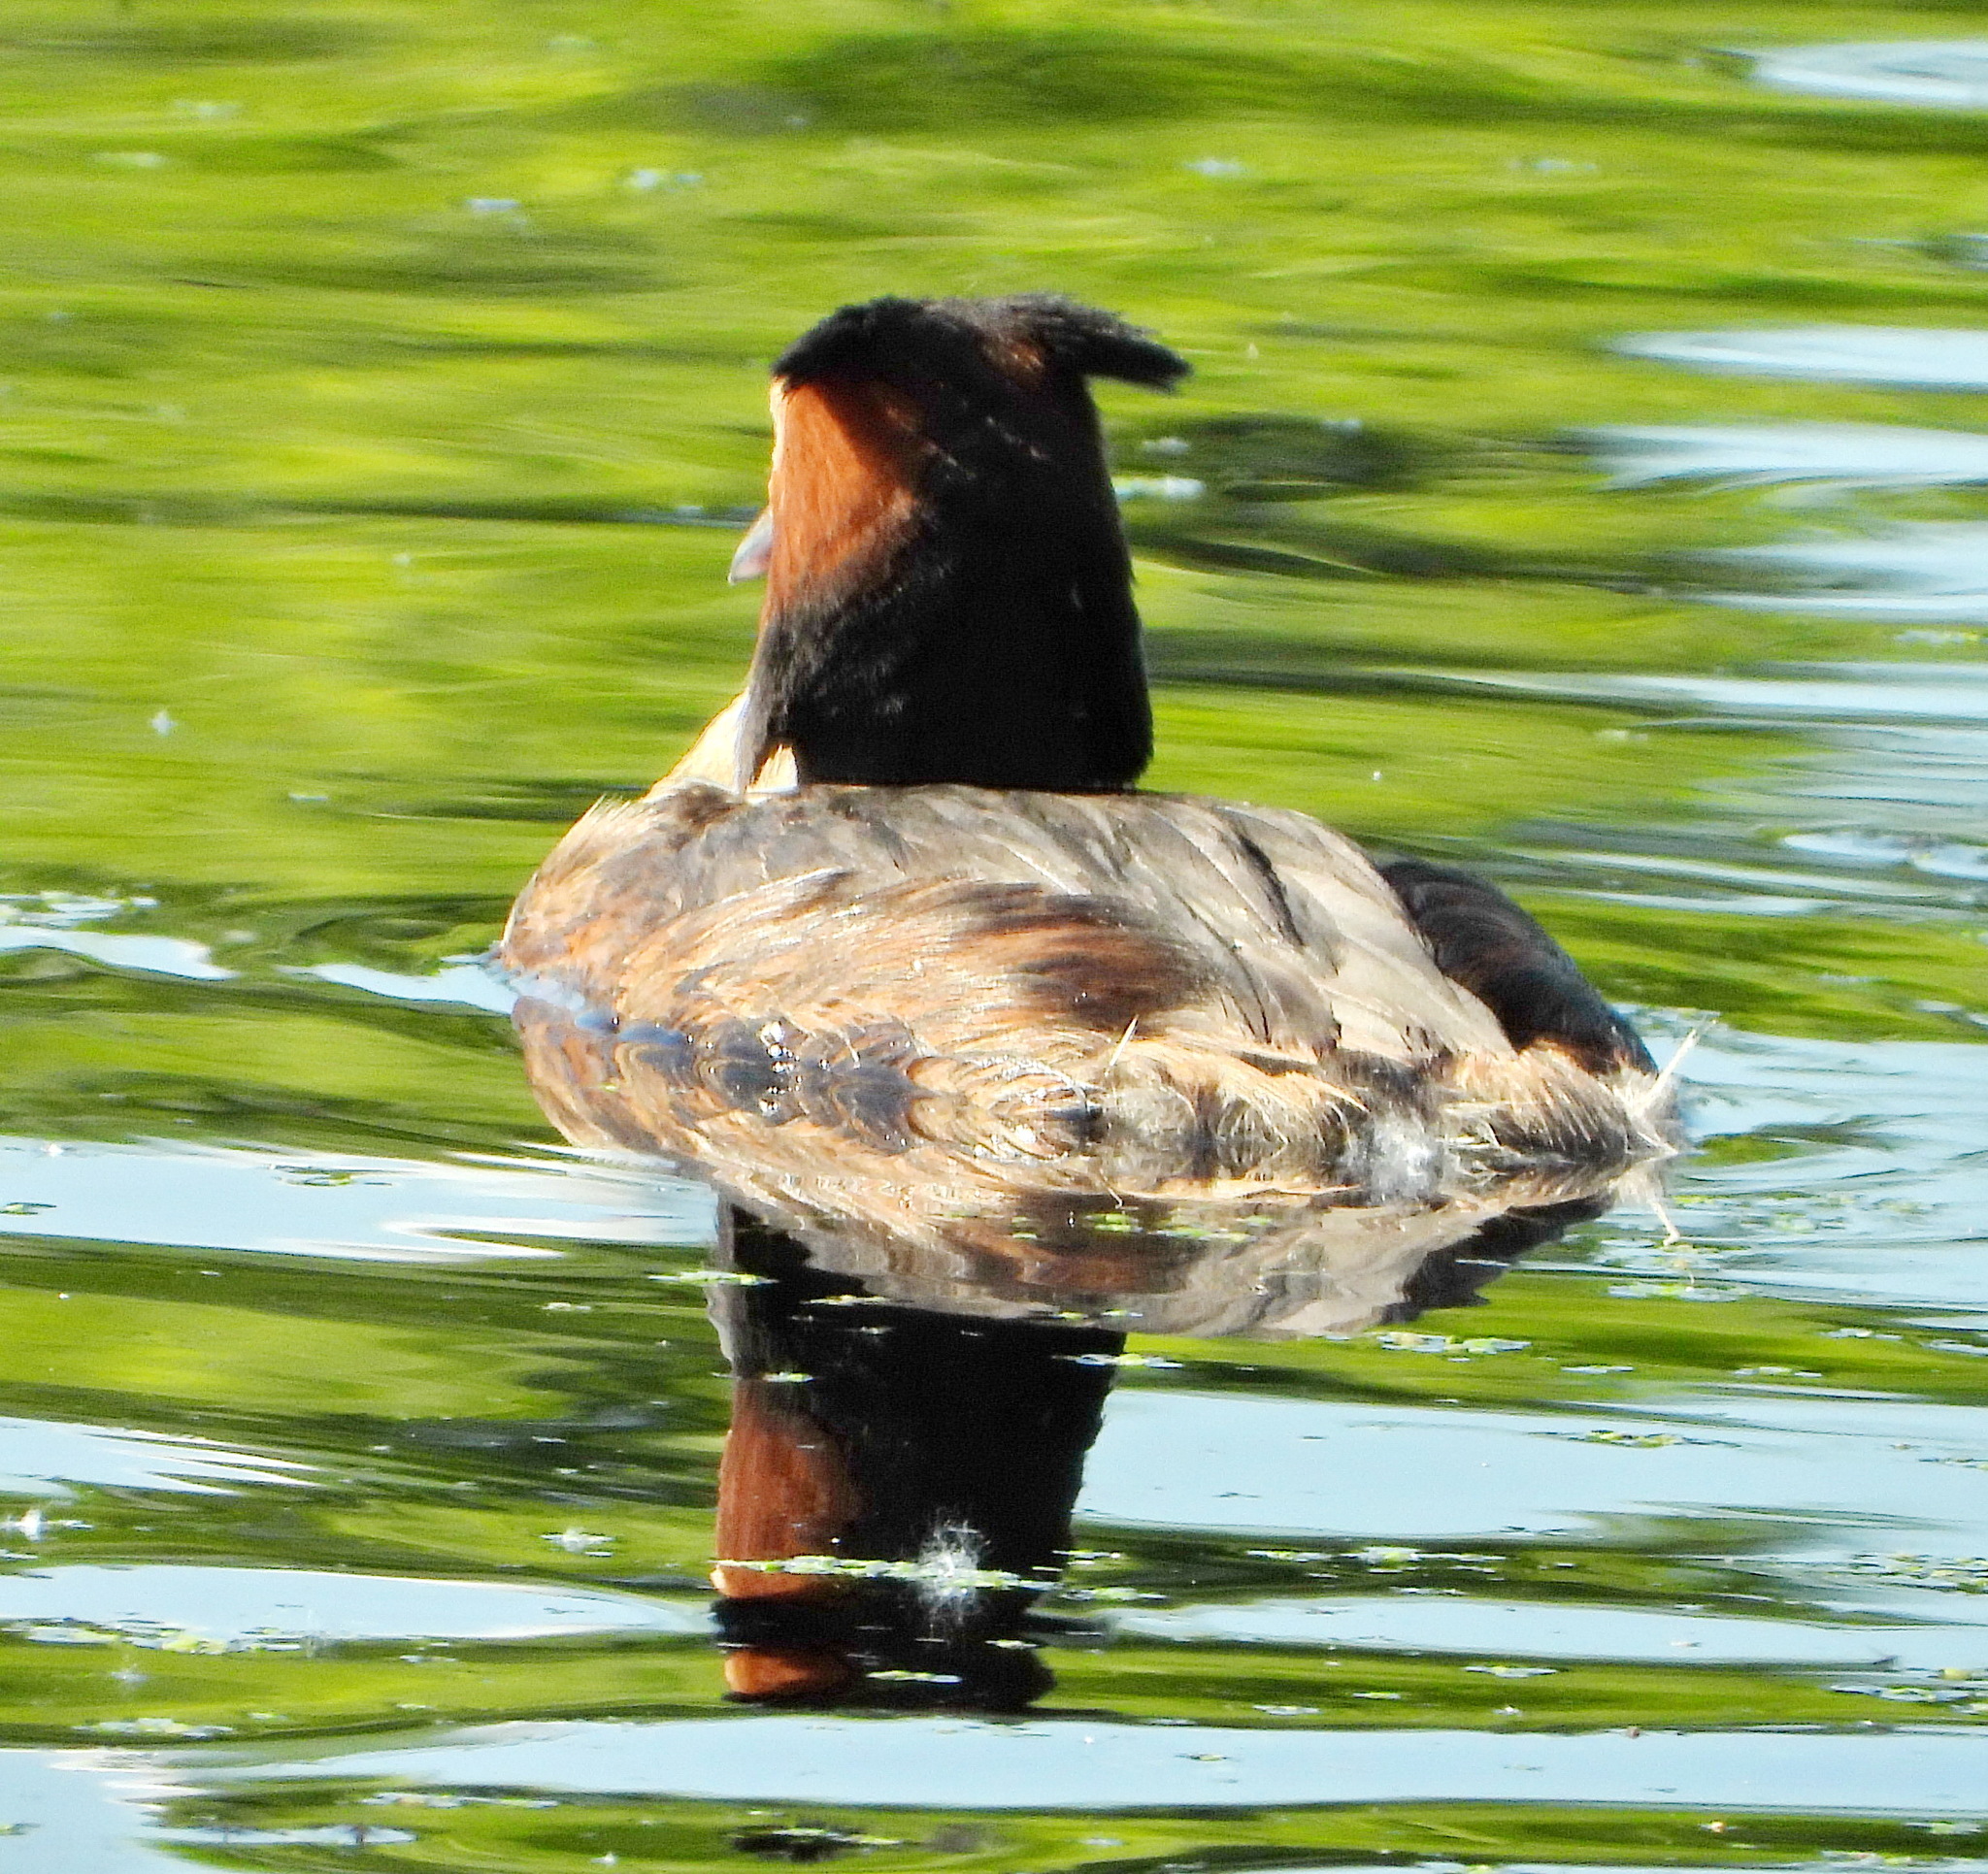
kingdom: Animalia
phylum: Chordata
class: Aves
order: Podicipediformes
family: Podicipedidae
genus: Podiceps
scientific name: Podiceps cristatus
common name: Great crested grebe
